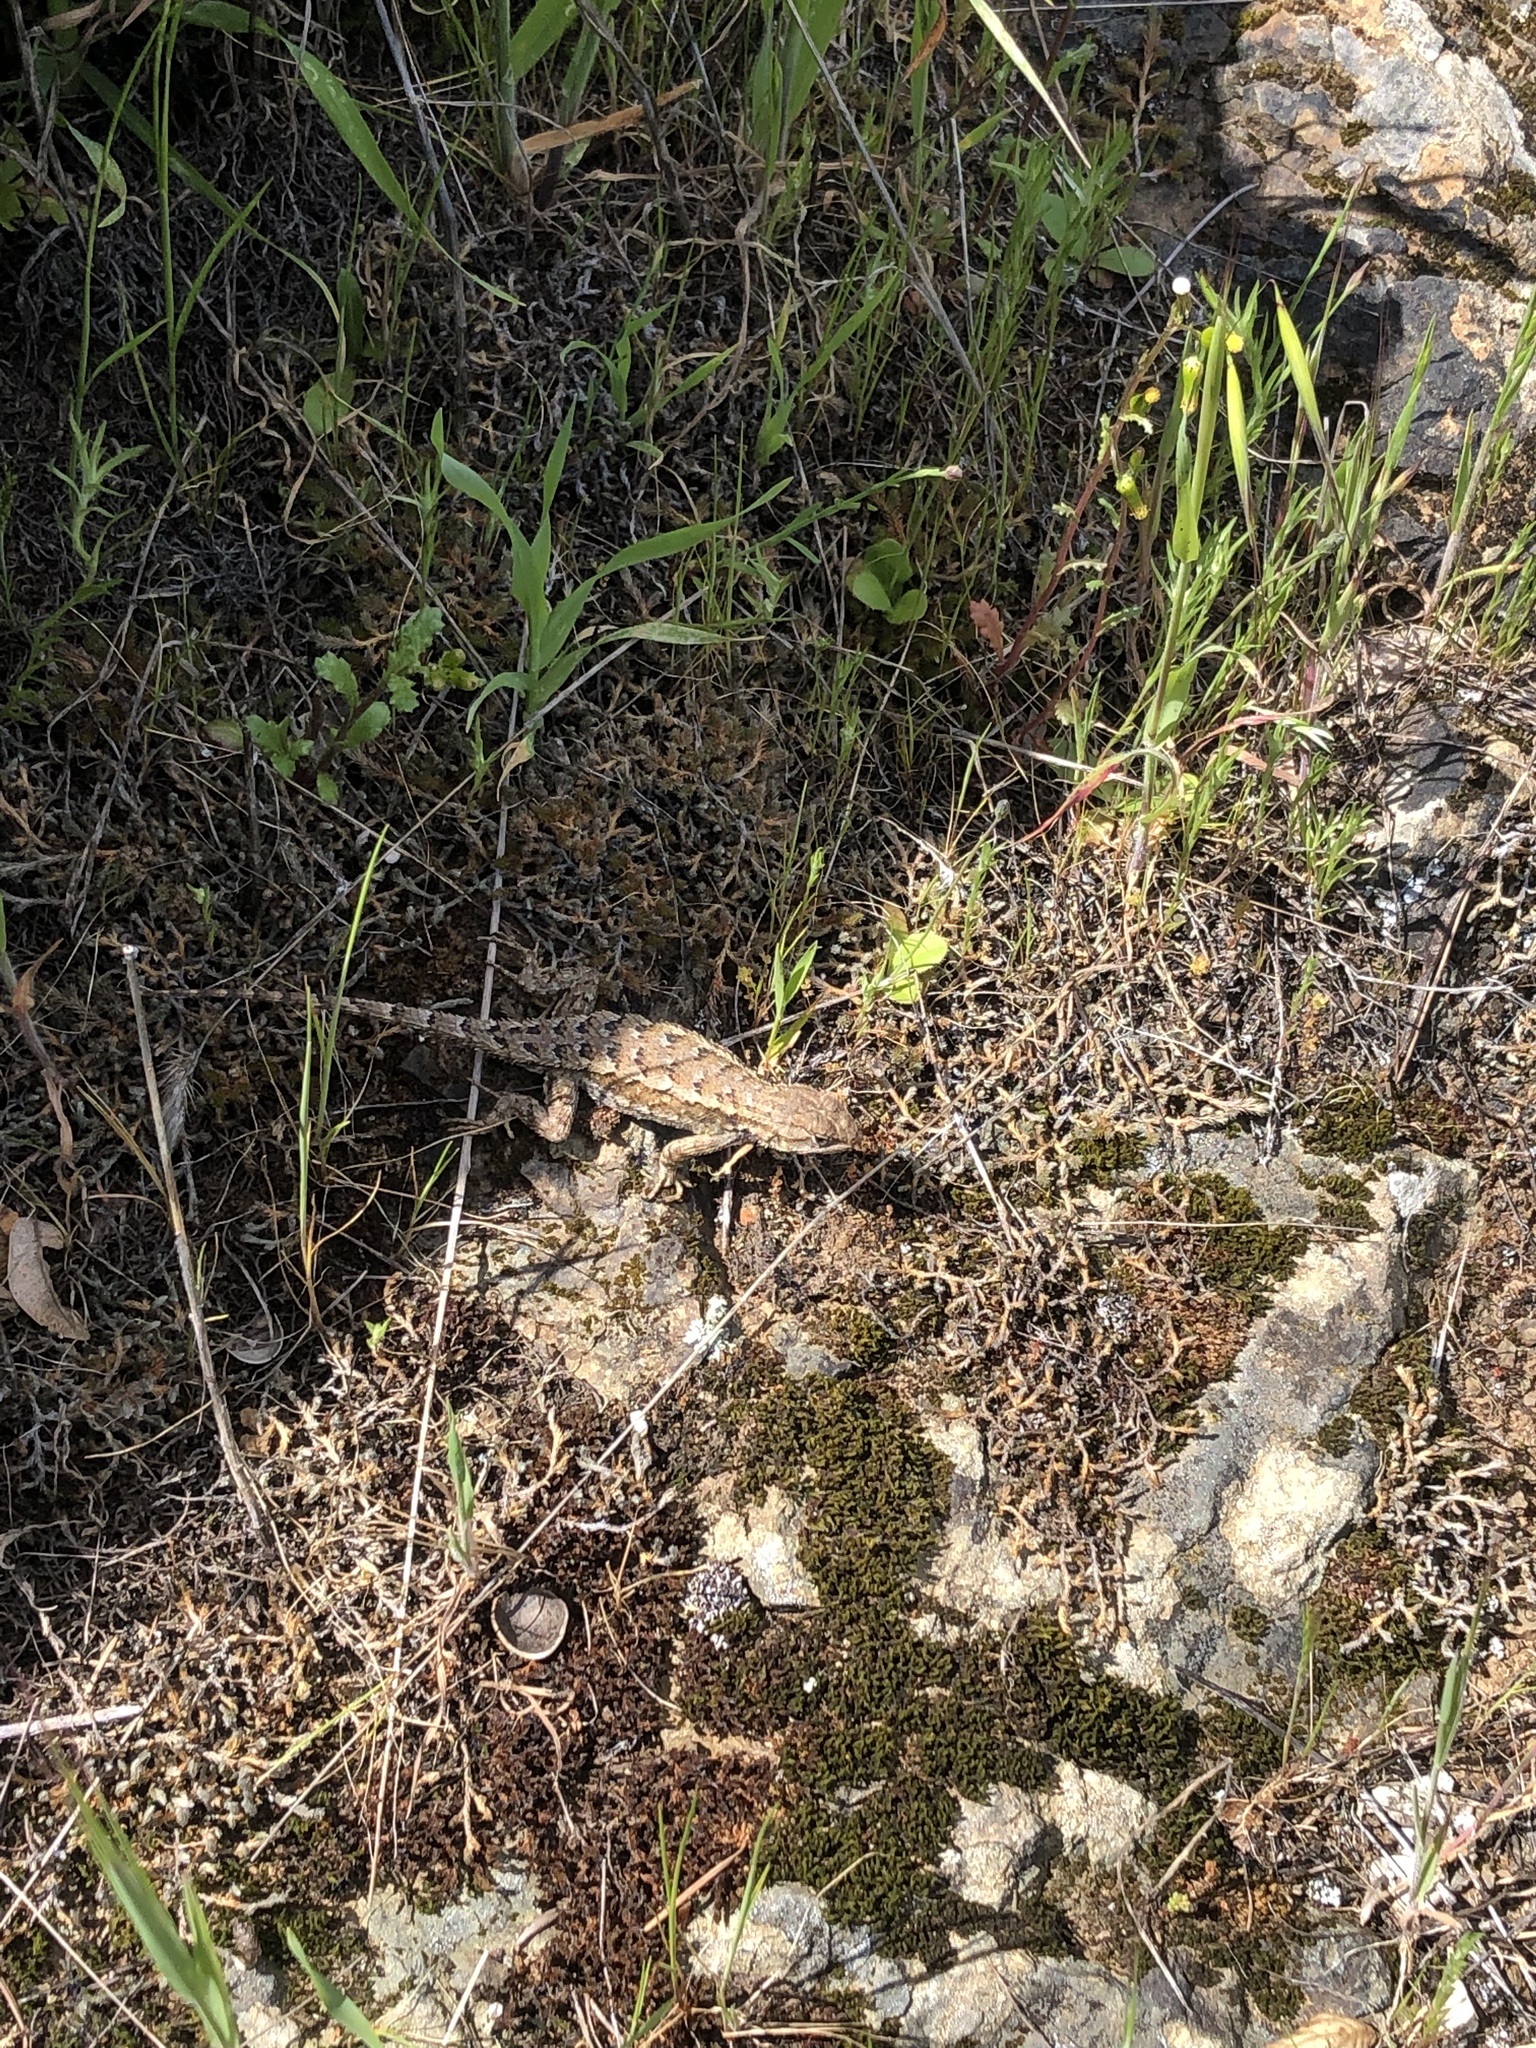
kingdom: Animalia
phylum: Chordata
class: Squamata
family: Phrynosomatidae
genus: Sceloporus
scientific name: Sceloporus occidentalis
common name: Western fence lizard
